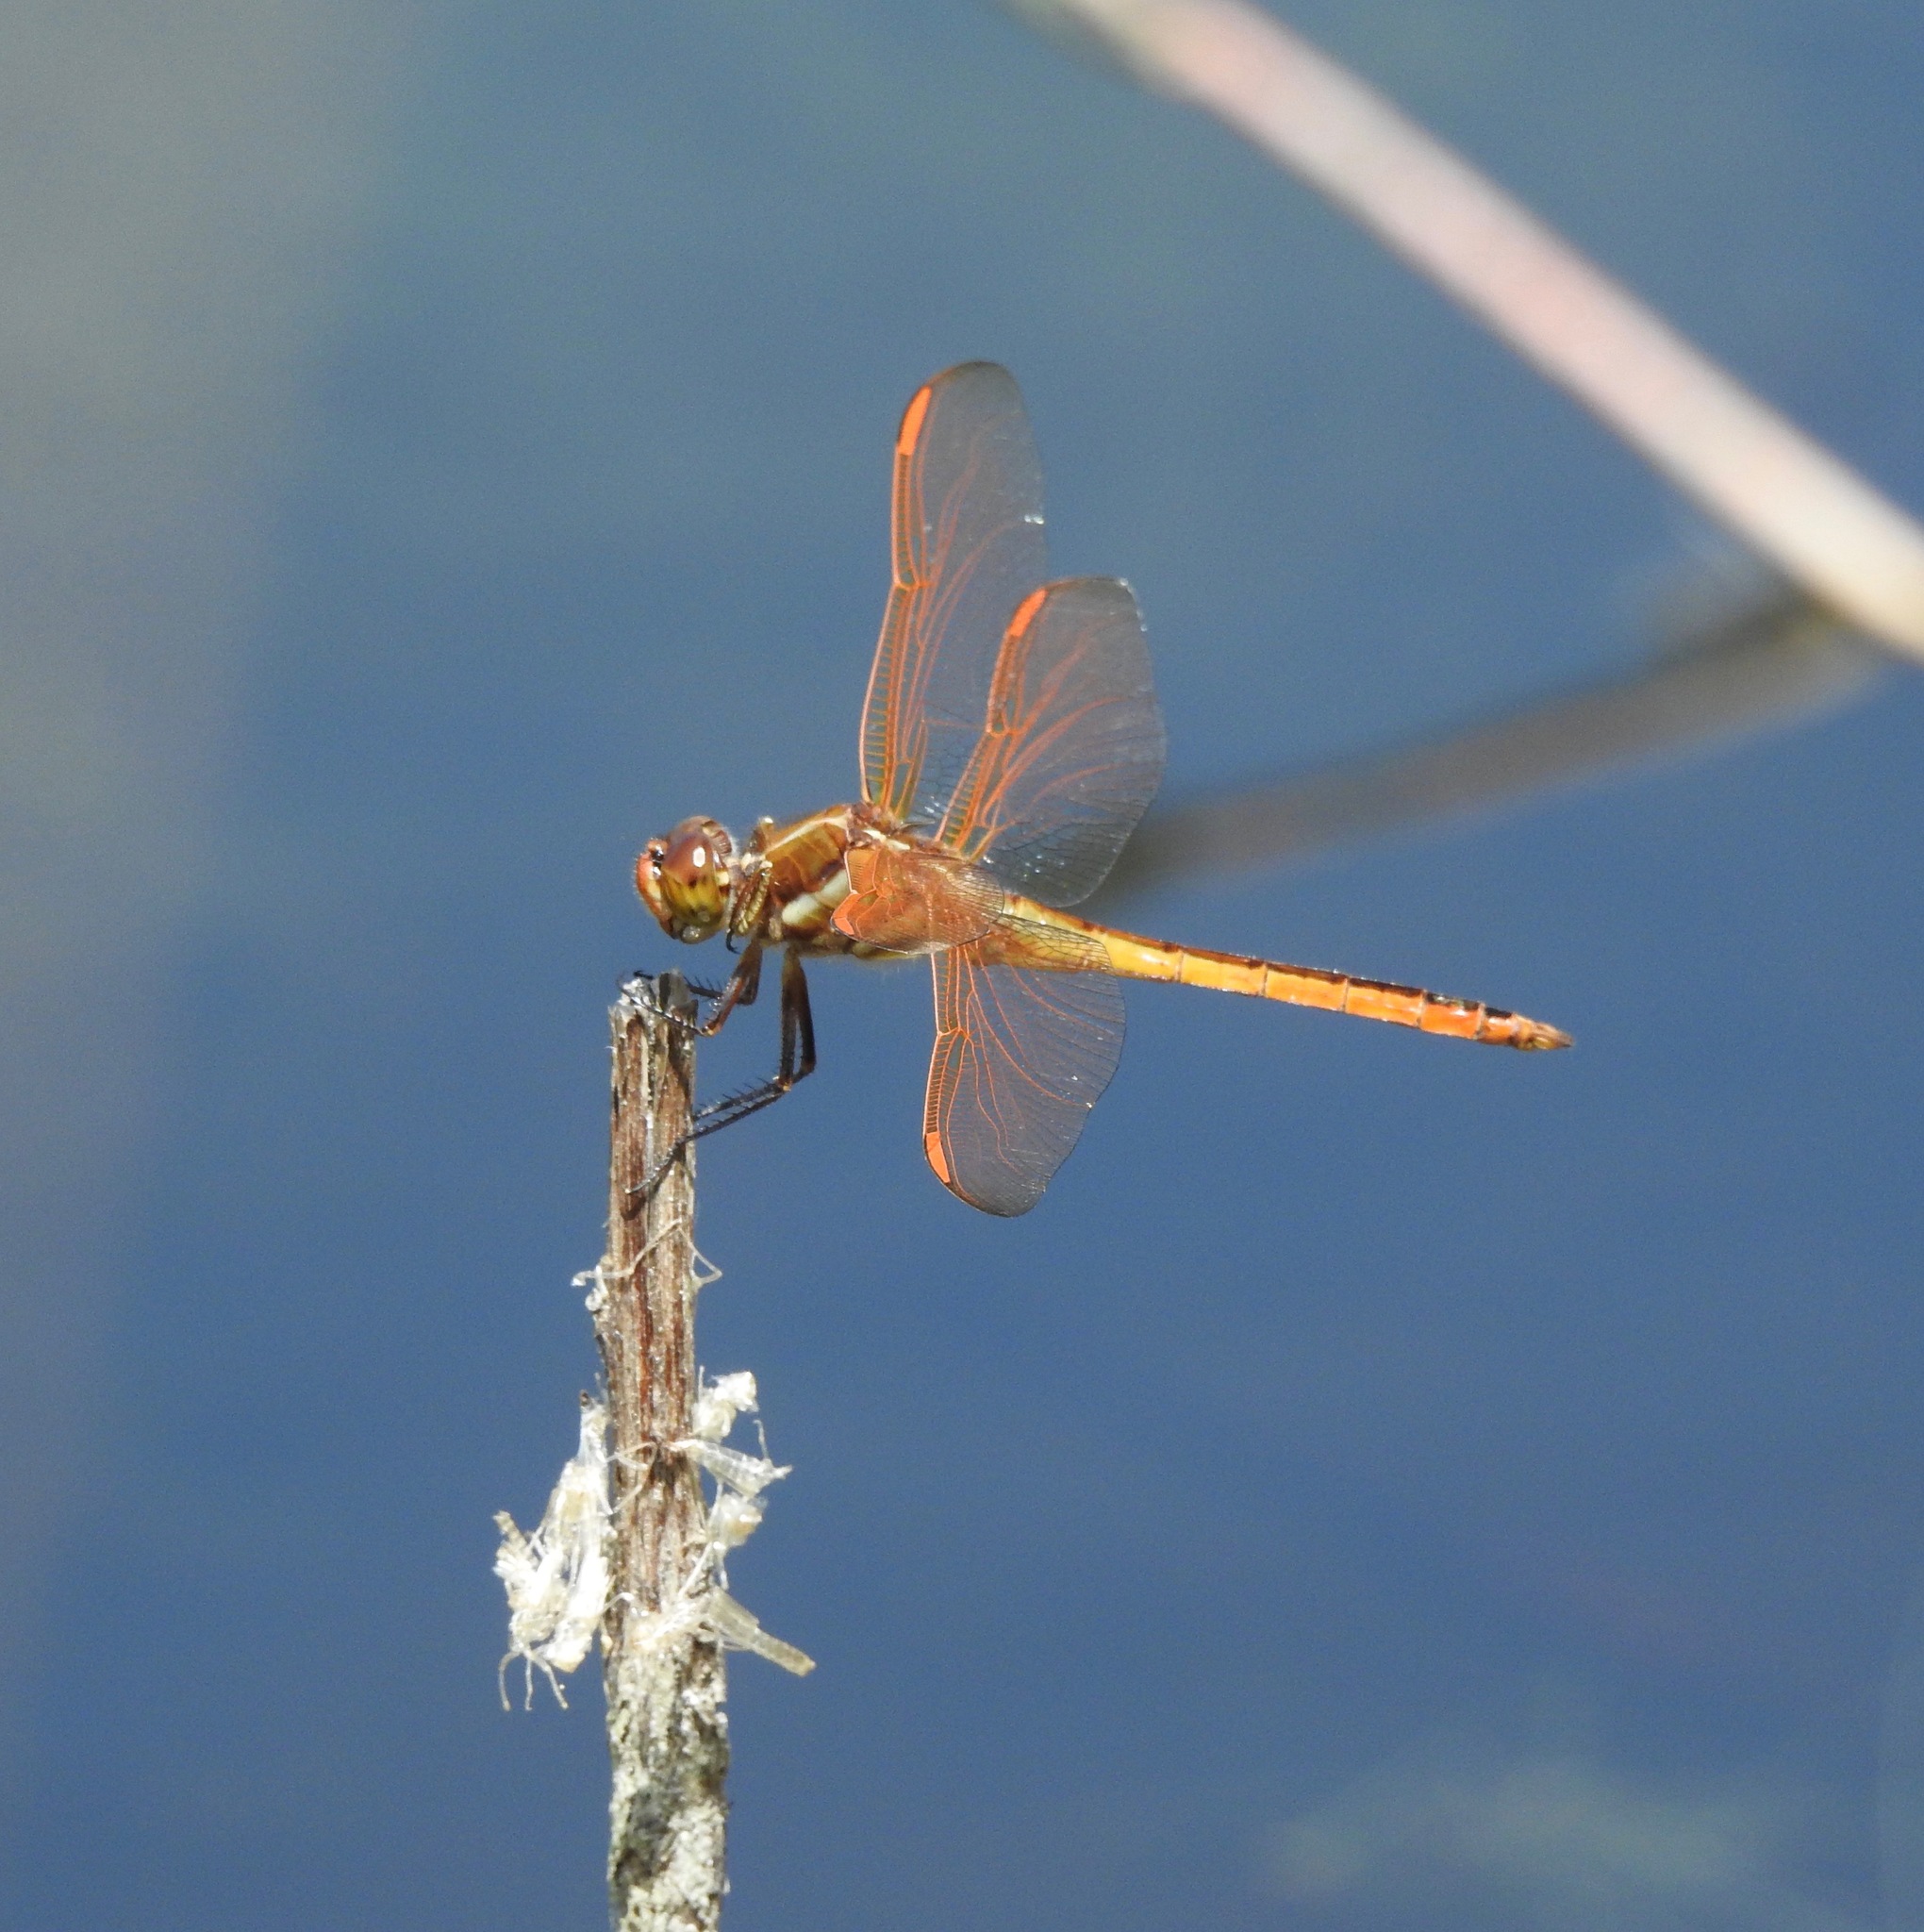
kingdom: Animalia
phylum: Arthropoda
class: Insecta
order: Odonata
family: Libellulidae
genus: Libellula
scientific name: Libellula auripennis
